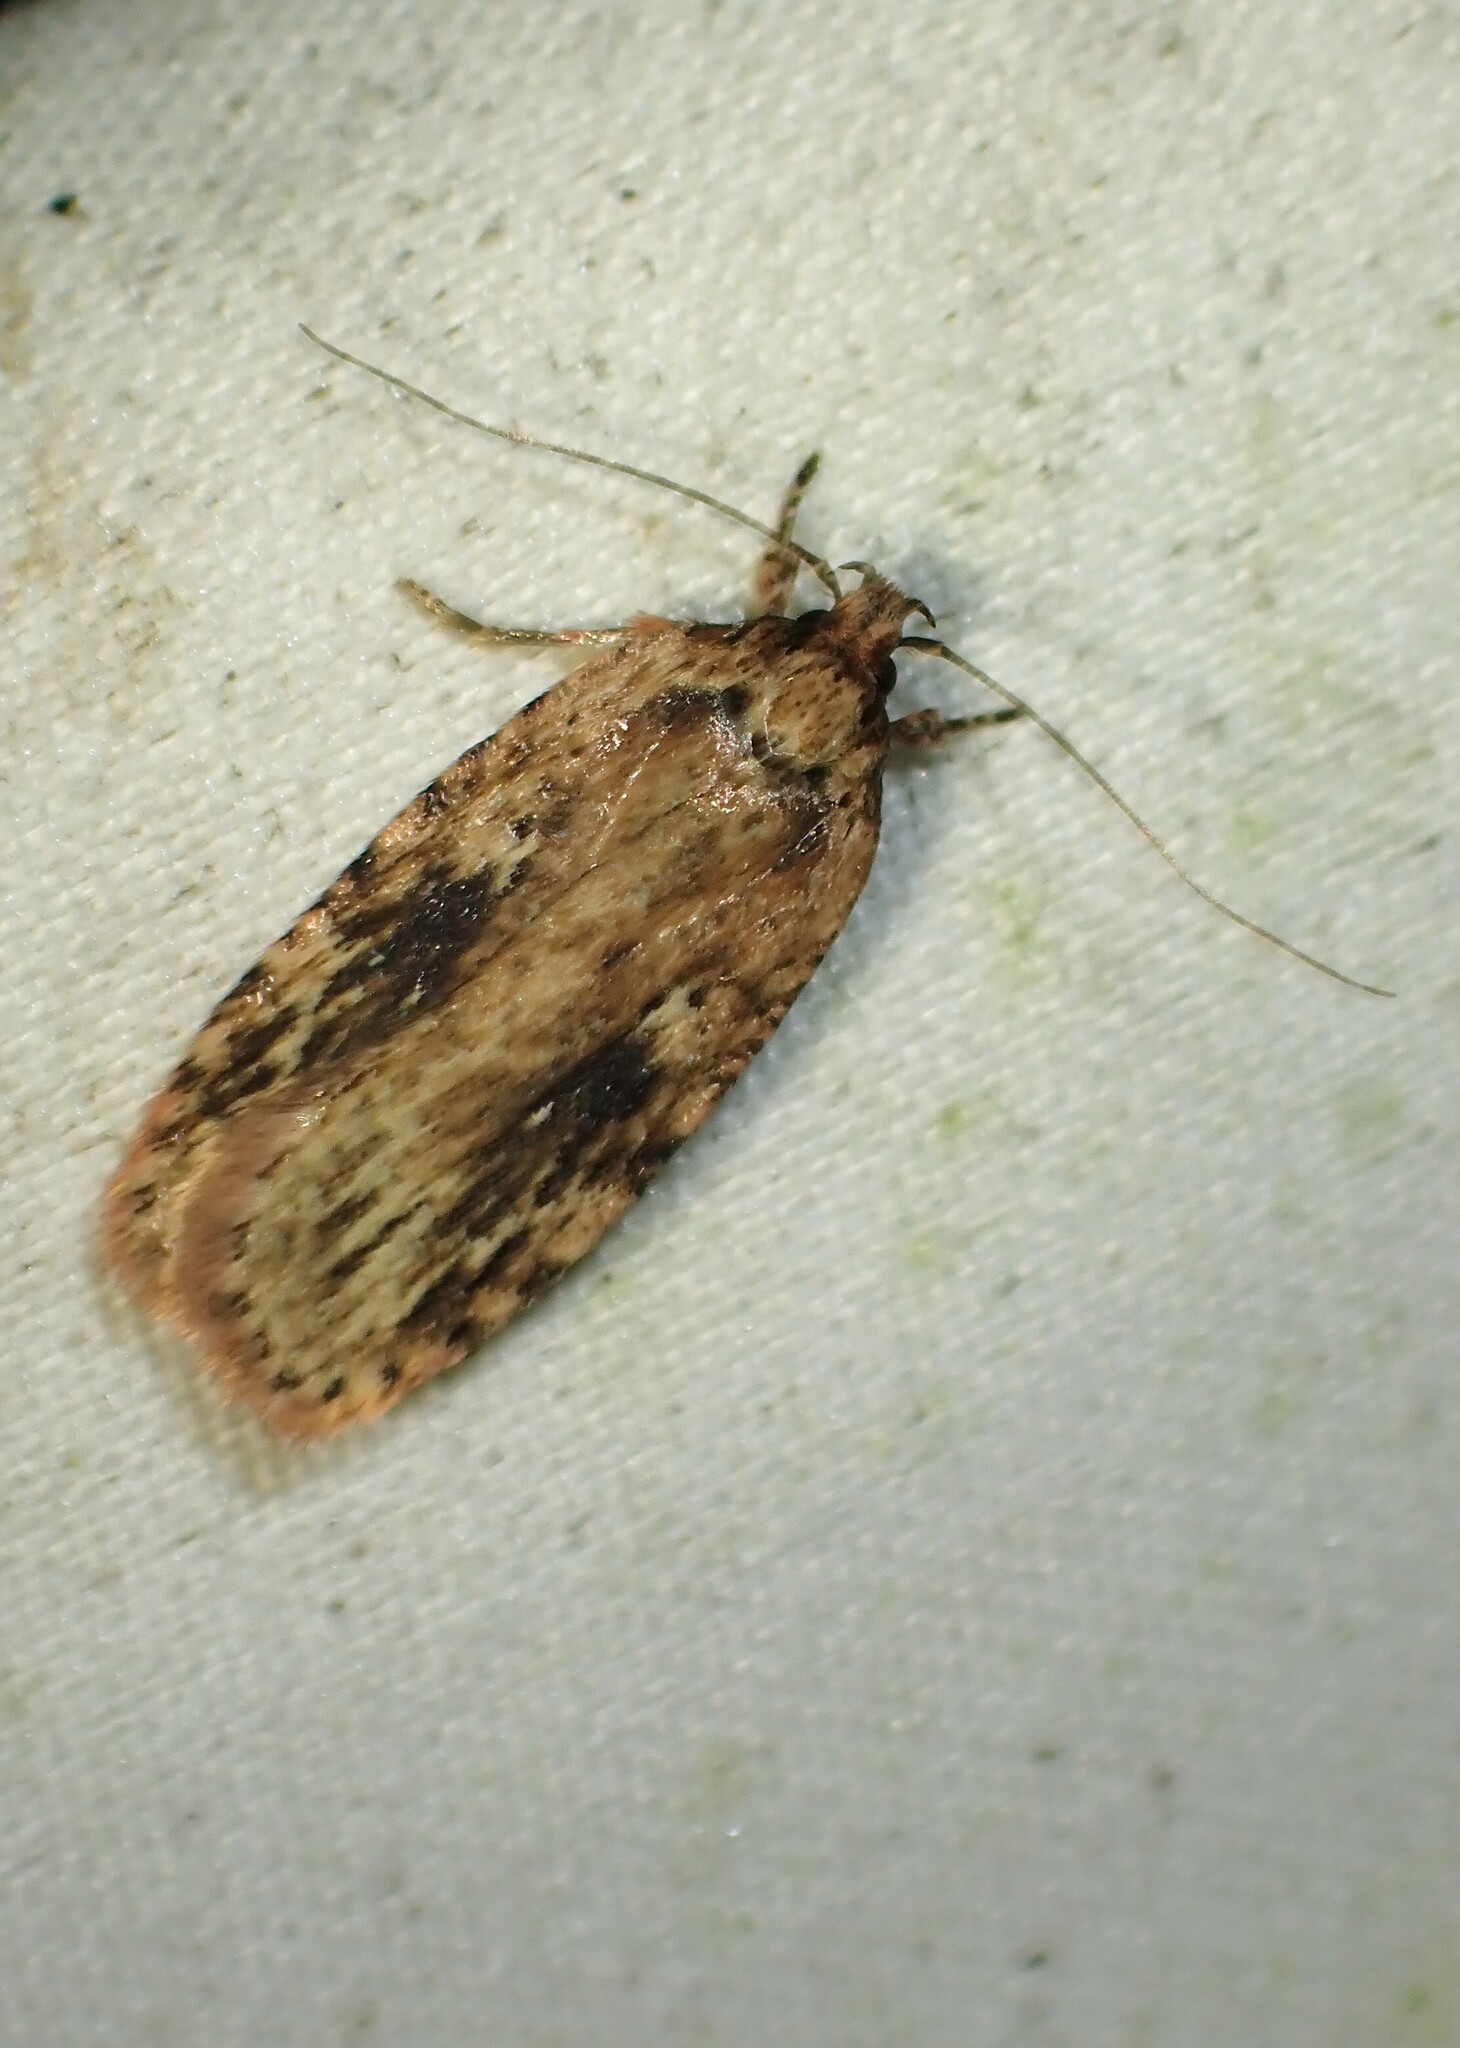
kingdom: Animalia
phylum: Arthropoda
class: Insecta
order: Lepidoptera
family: Depressariidae
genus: Agonopterix
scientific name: Agonopterix pulvipennella
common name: Goldenrod leafffolder
